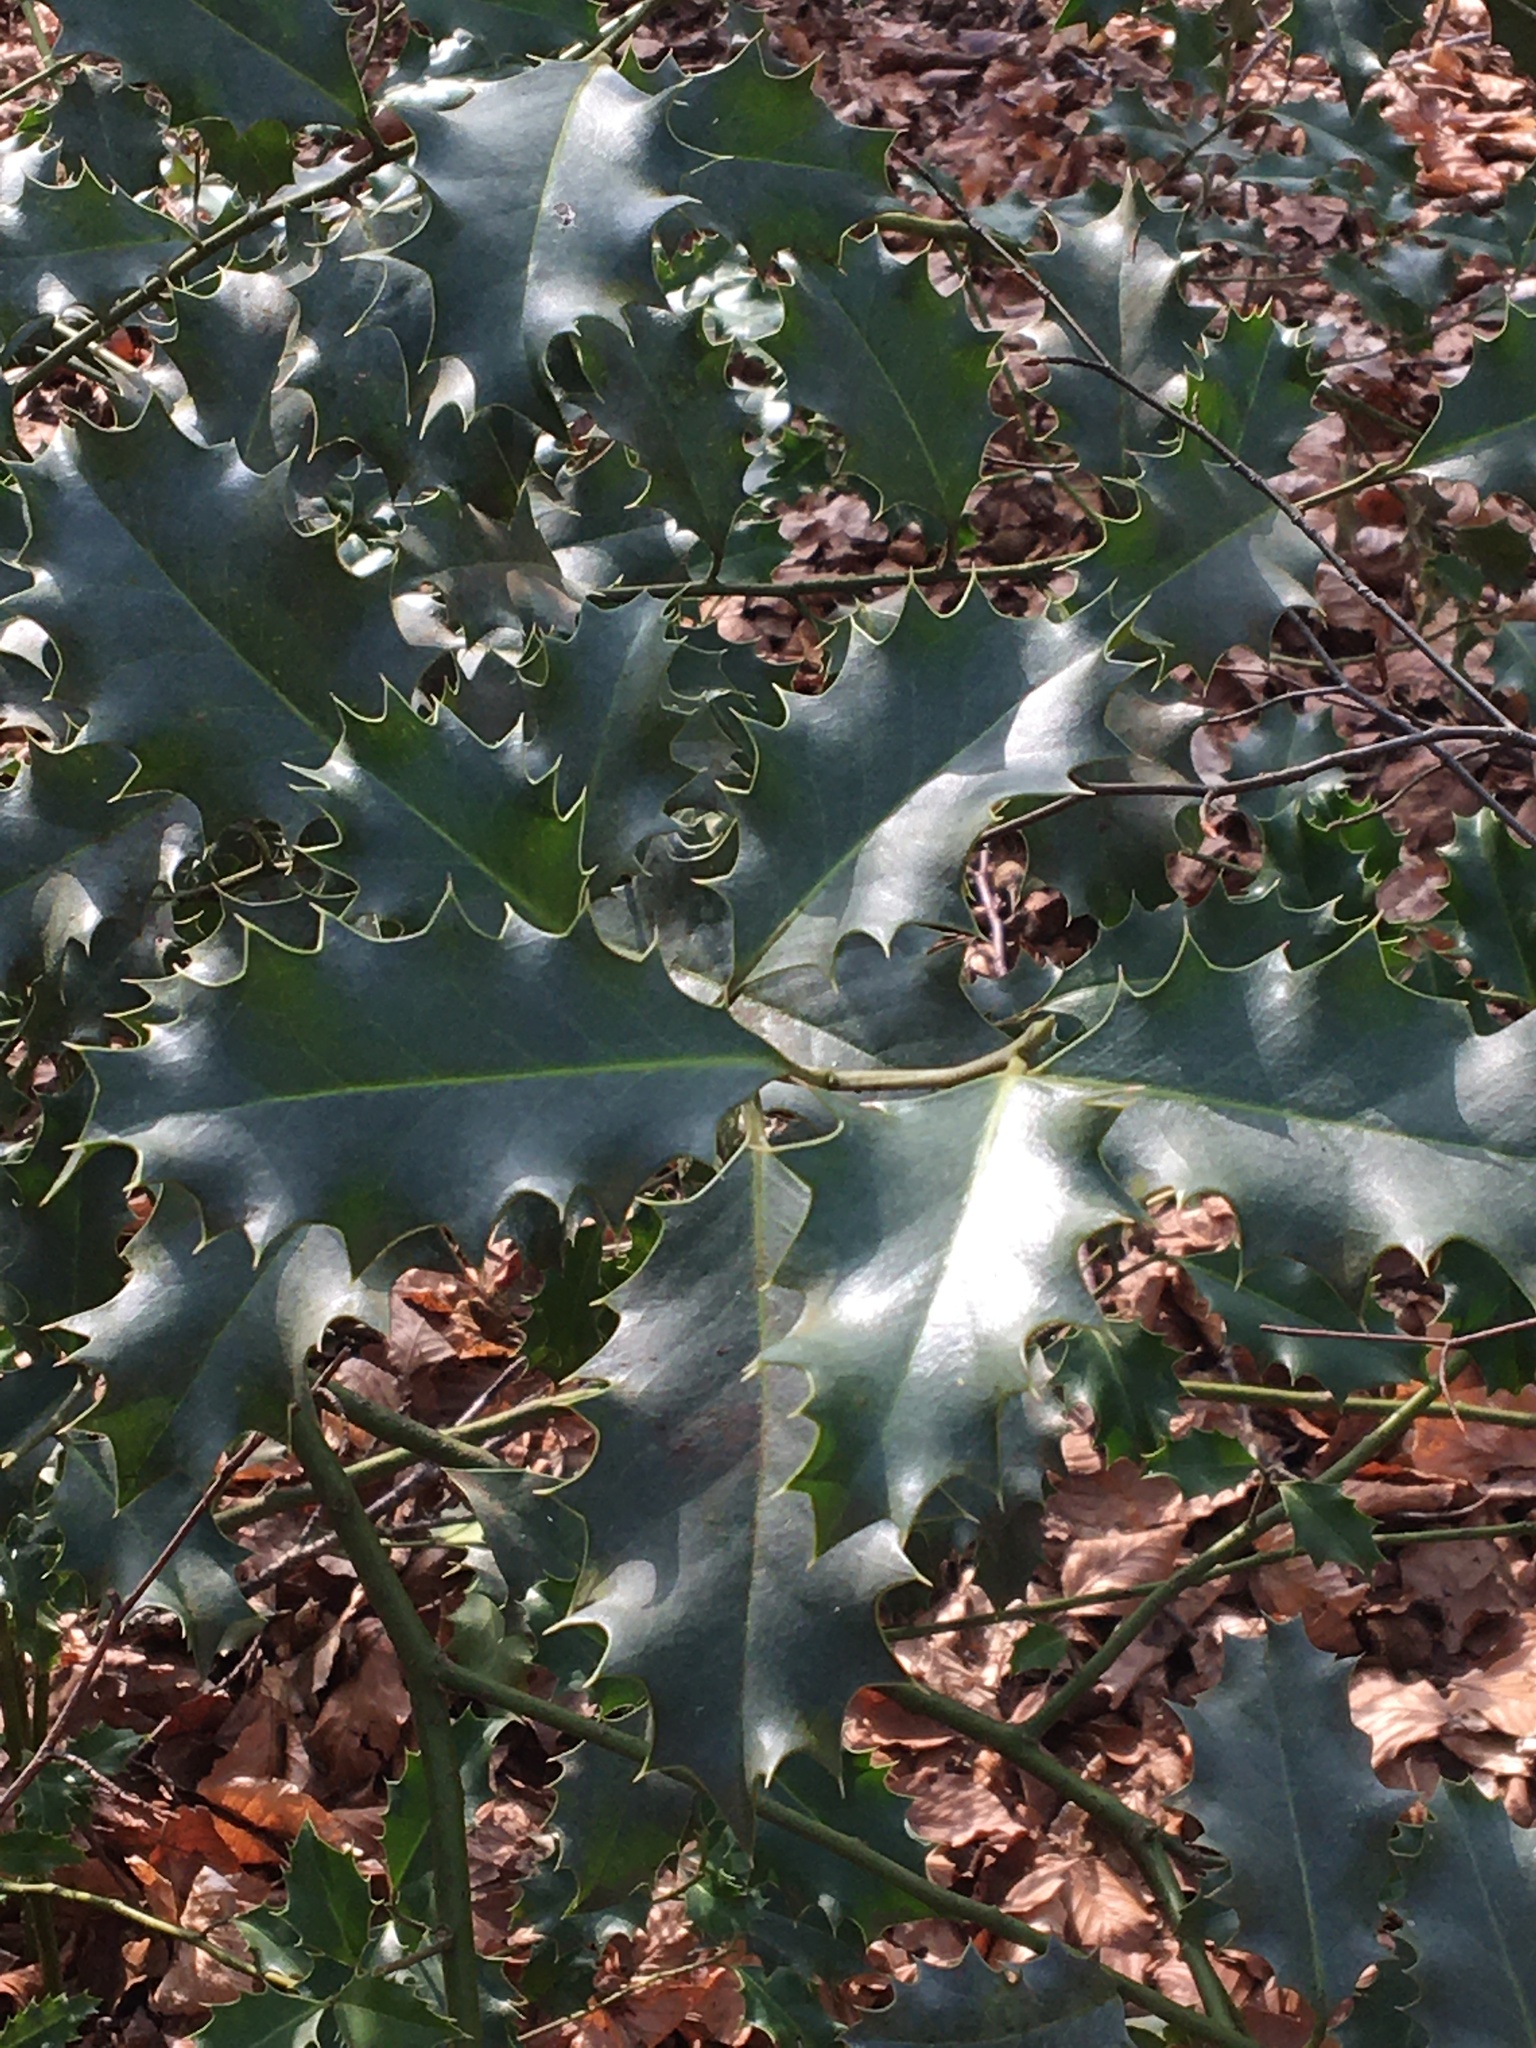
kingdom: Plantae
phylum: Tracheophyta
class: Magnoliopsida
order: Aquifoliales
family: Aquifoliaceae
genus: Ilex
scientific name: Ilex aquifolium
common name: English holly
